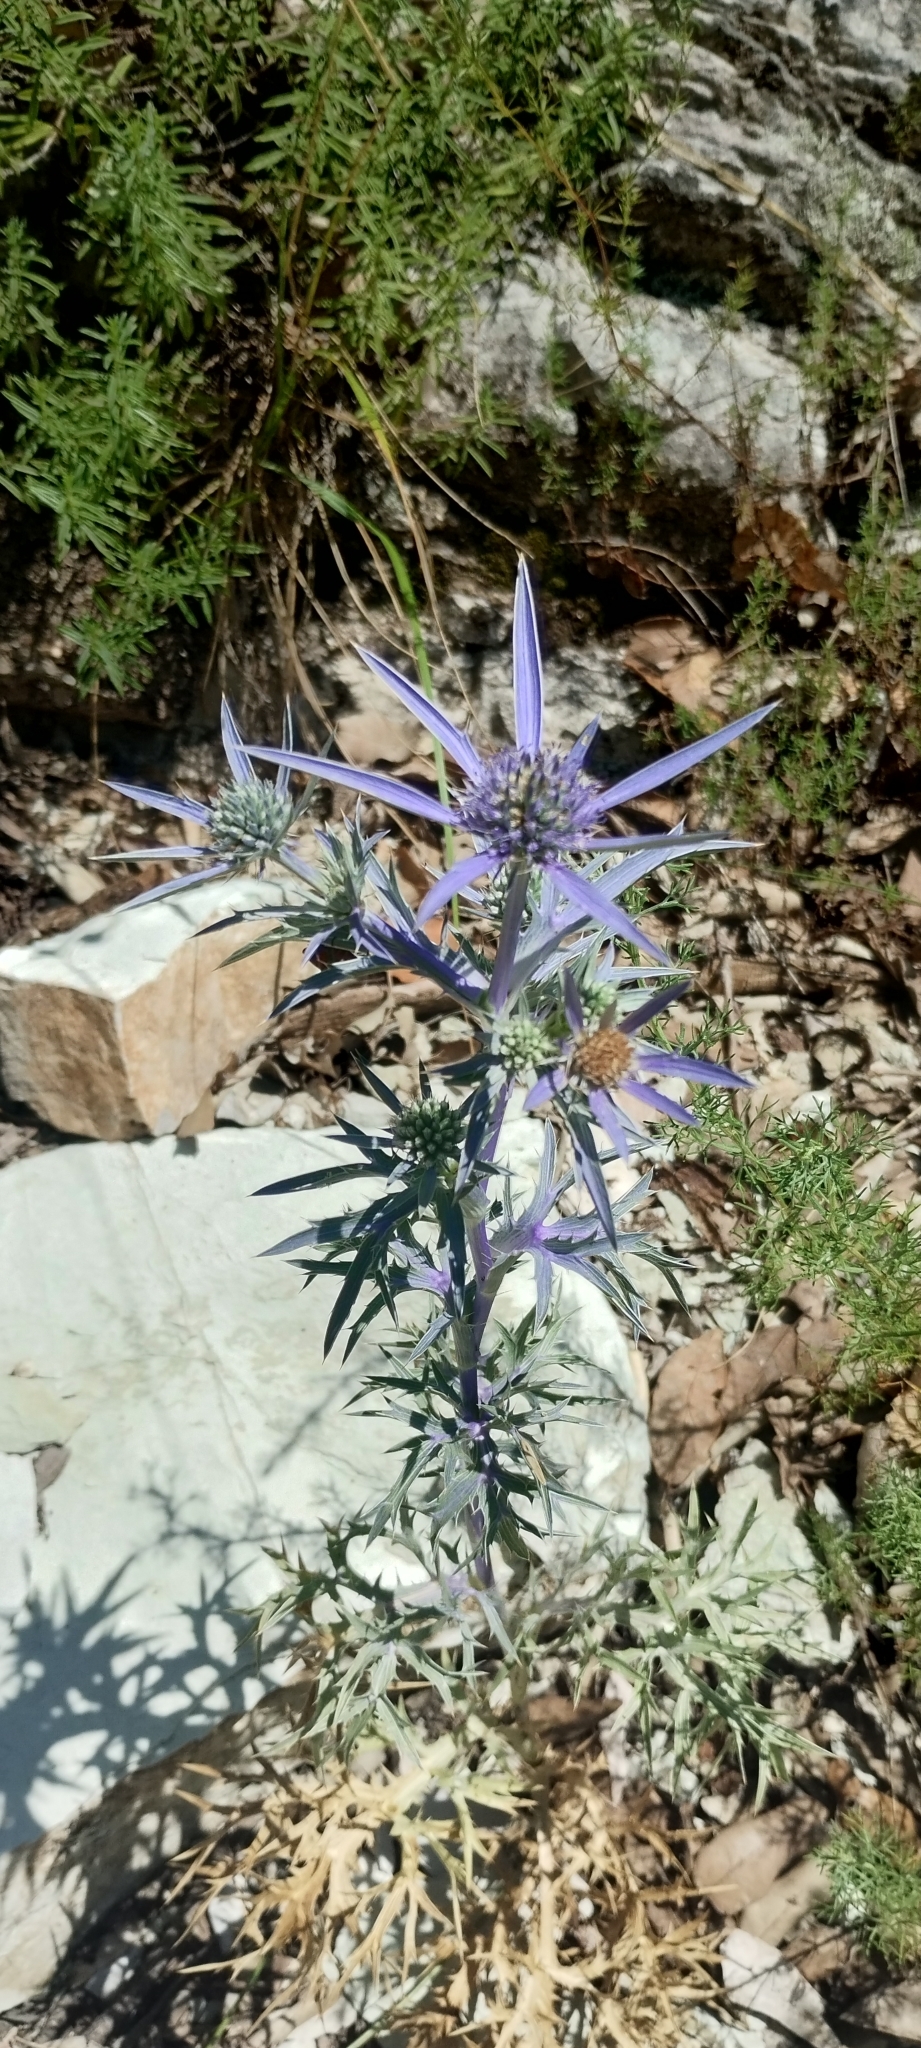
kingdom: Plantae
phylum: Tracheophyta
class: Magnoliopsida
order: Apiales
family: Apiaceae
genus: Eryngium
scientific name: Eryngium amethystinum
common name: Amethyst eryngo
